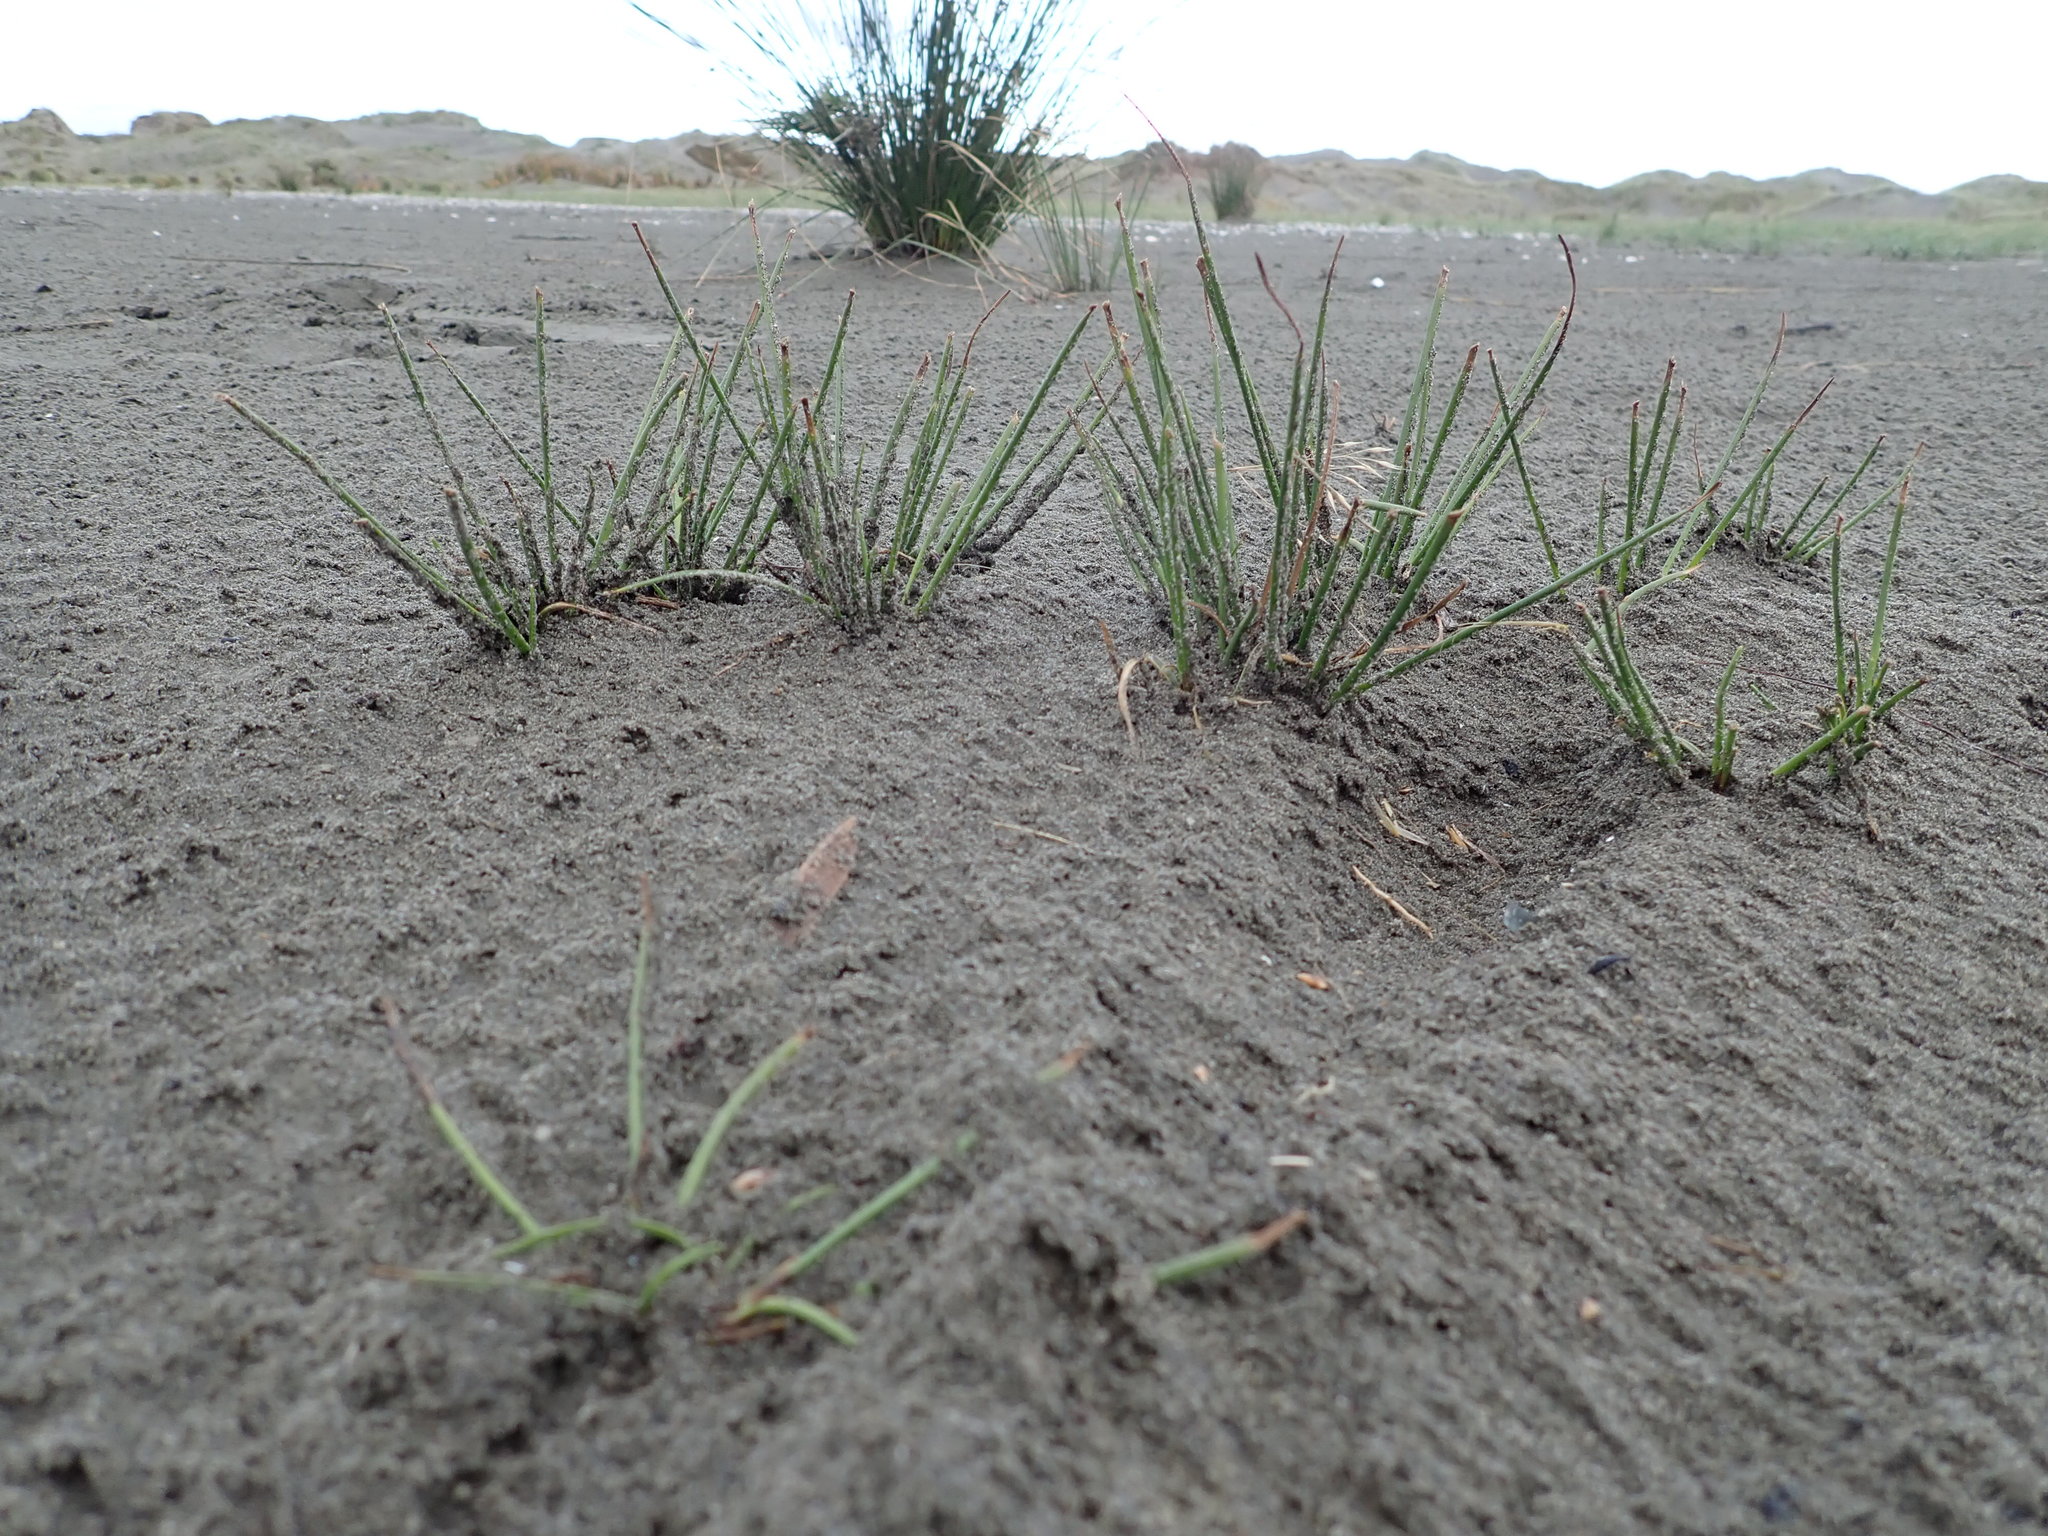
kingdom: Plantae
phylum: Tracheophyta
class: Liliopsida
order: Poales
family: Cyperaceae
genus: Ficinia
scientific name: Ficinia nodosa
